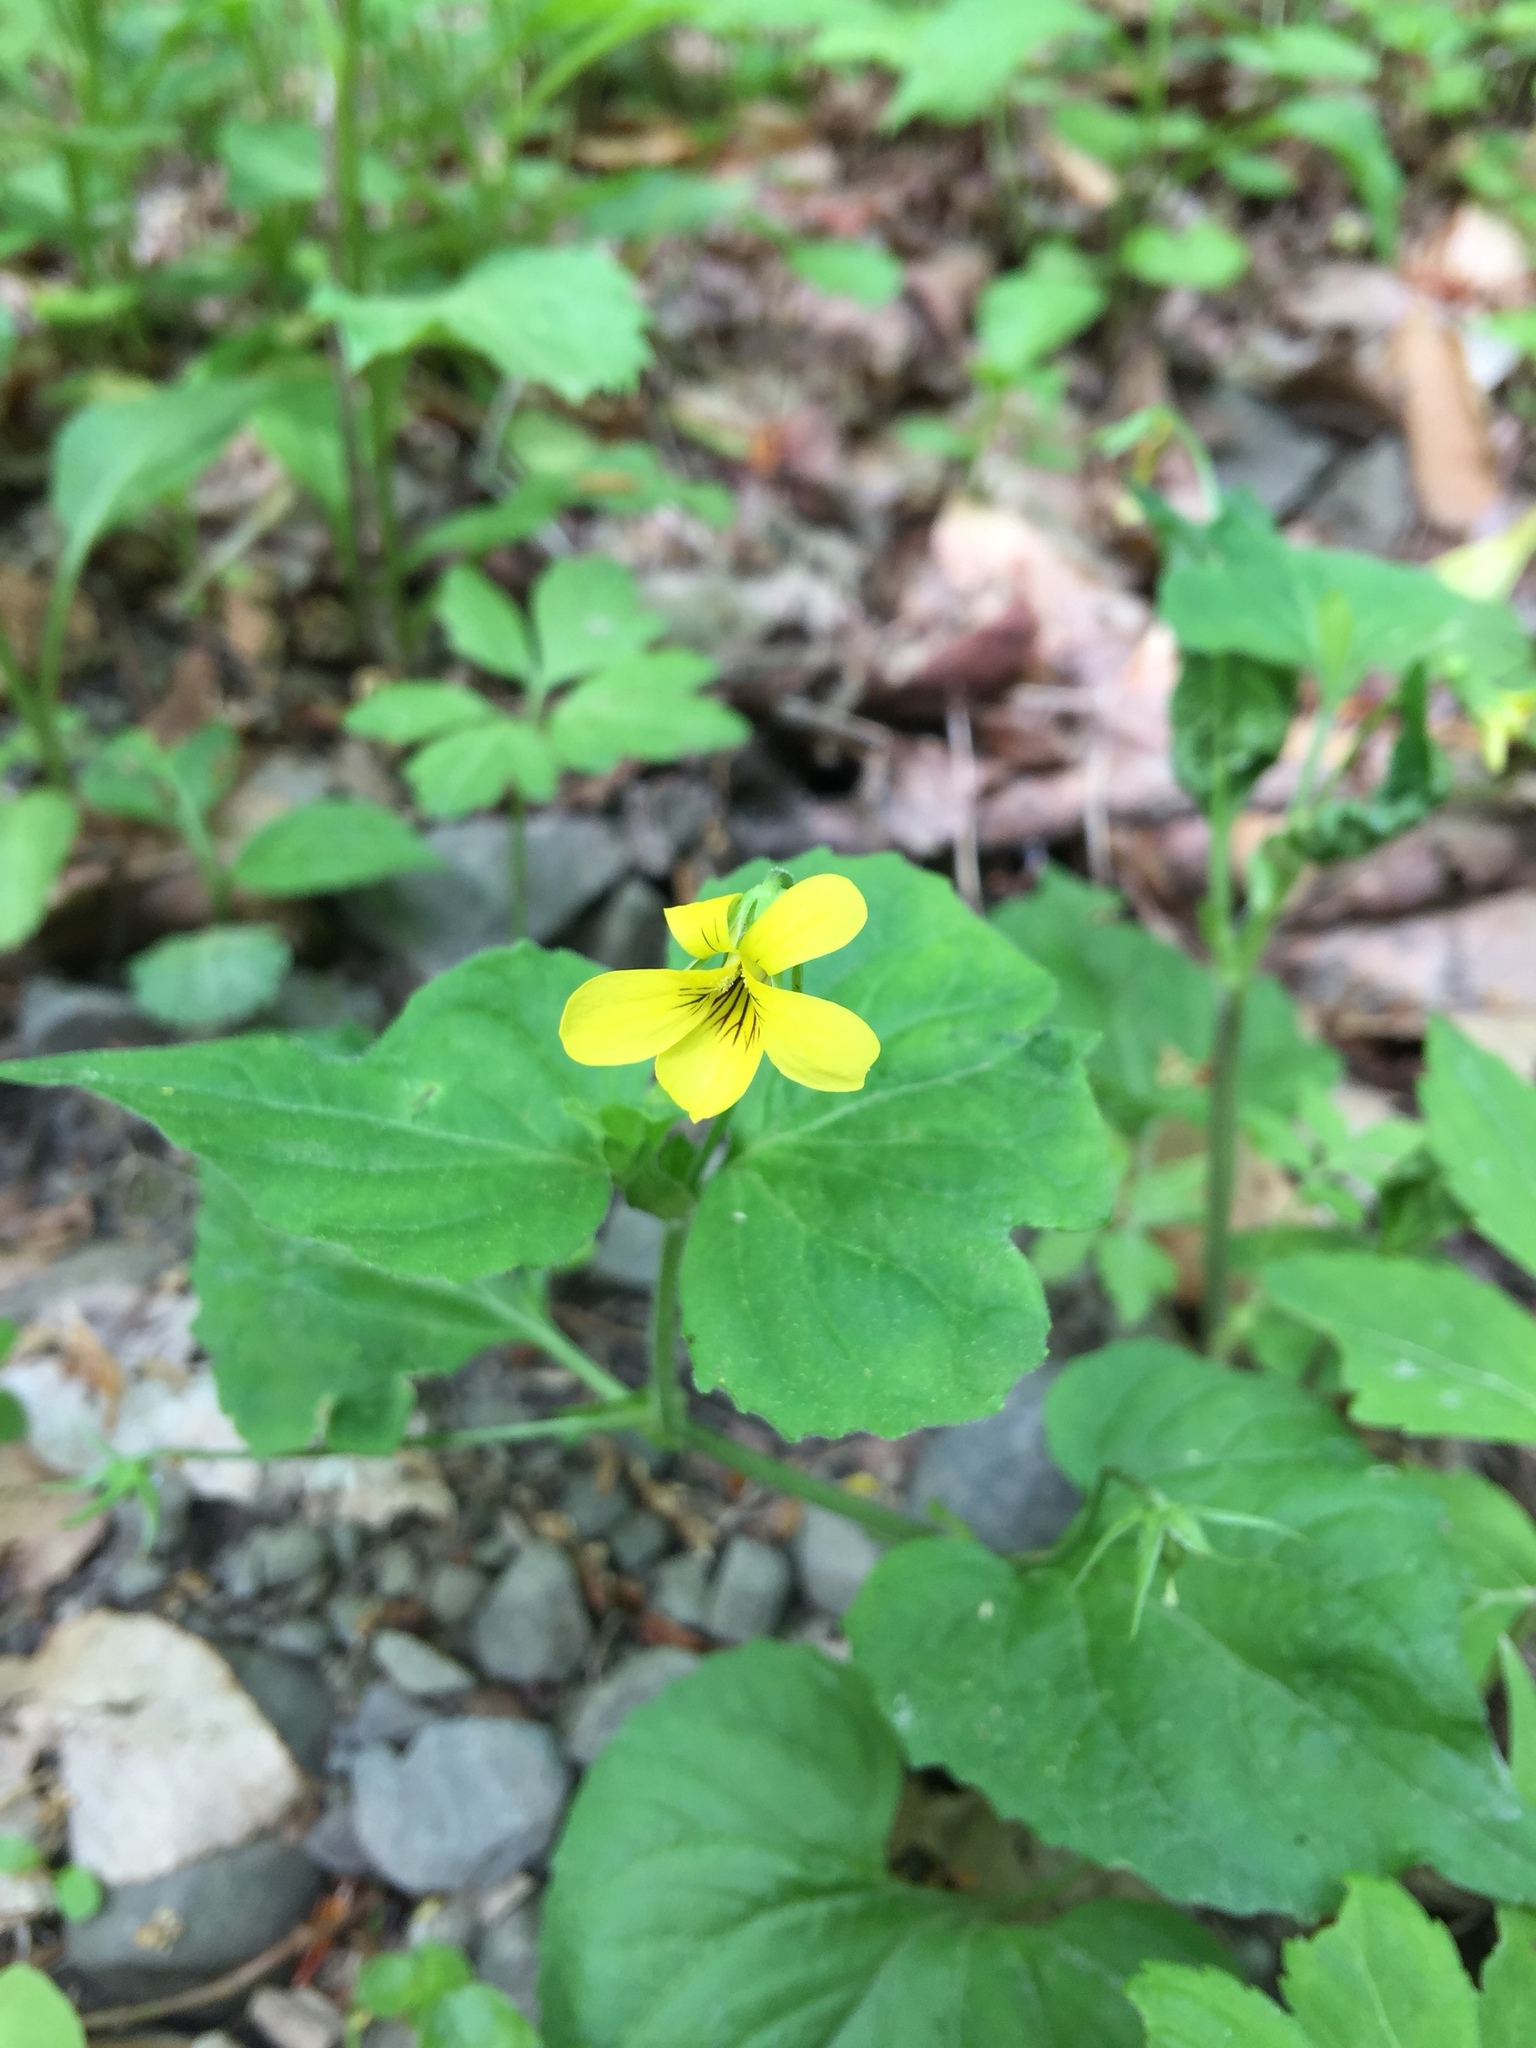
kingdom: Plantae
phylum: Tracheophyta
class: Magnoliopsida
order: Malpighiales
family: Violaceae
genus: Viola
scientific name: Viola eriocarpa
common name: Smooth yellow violet
